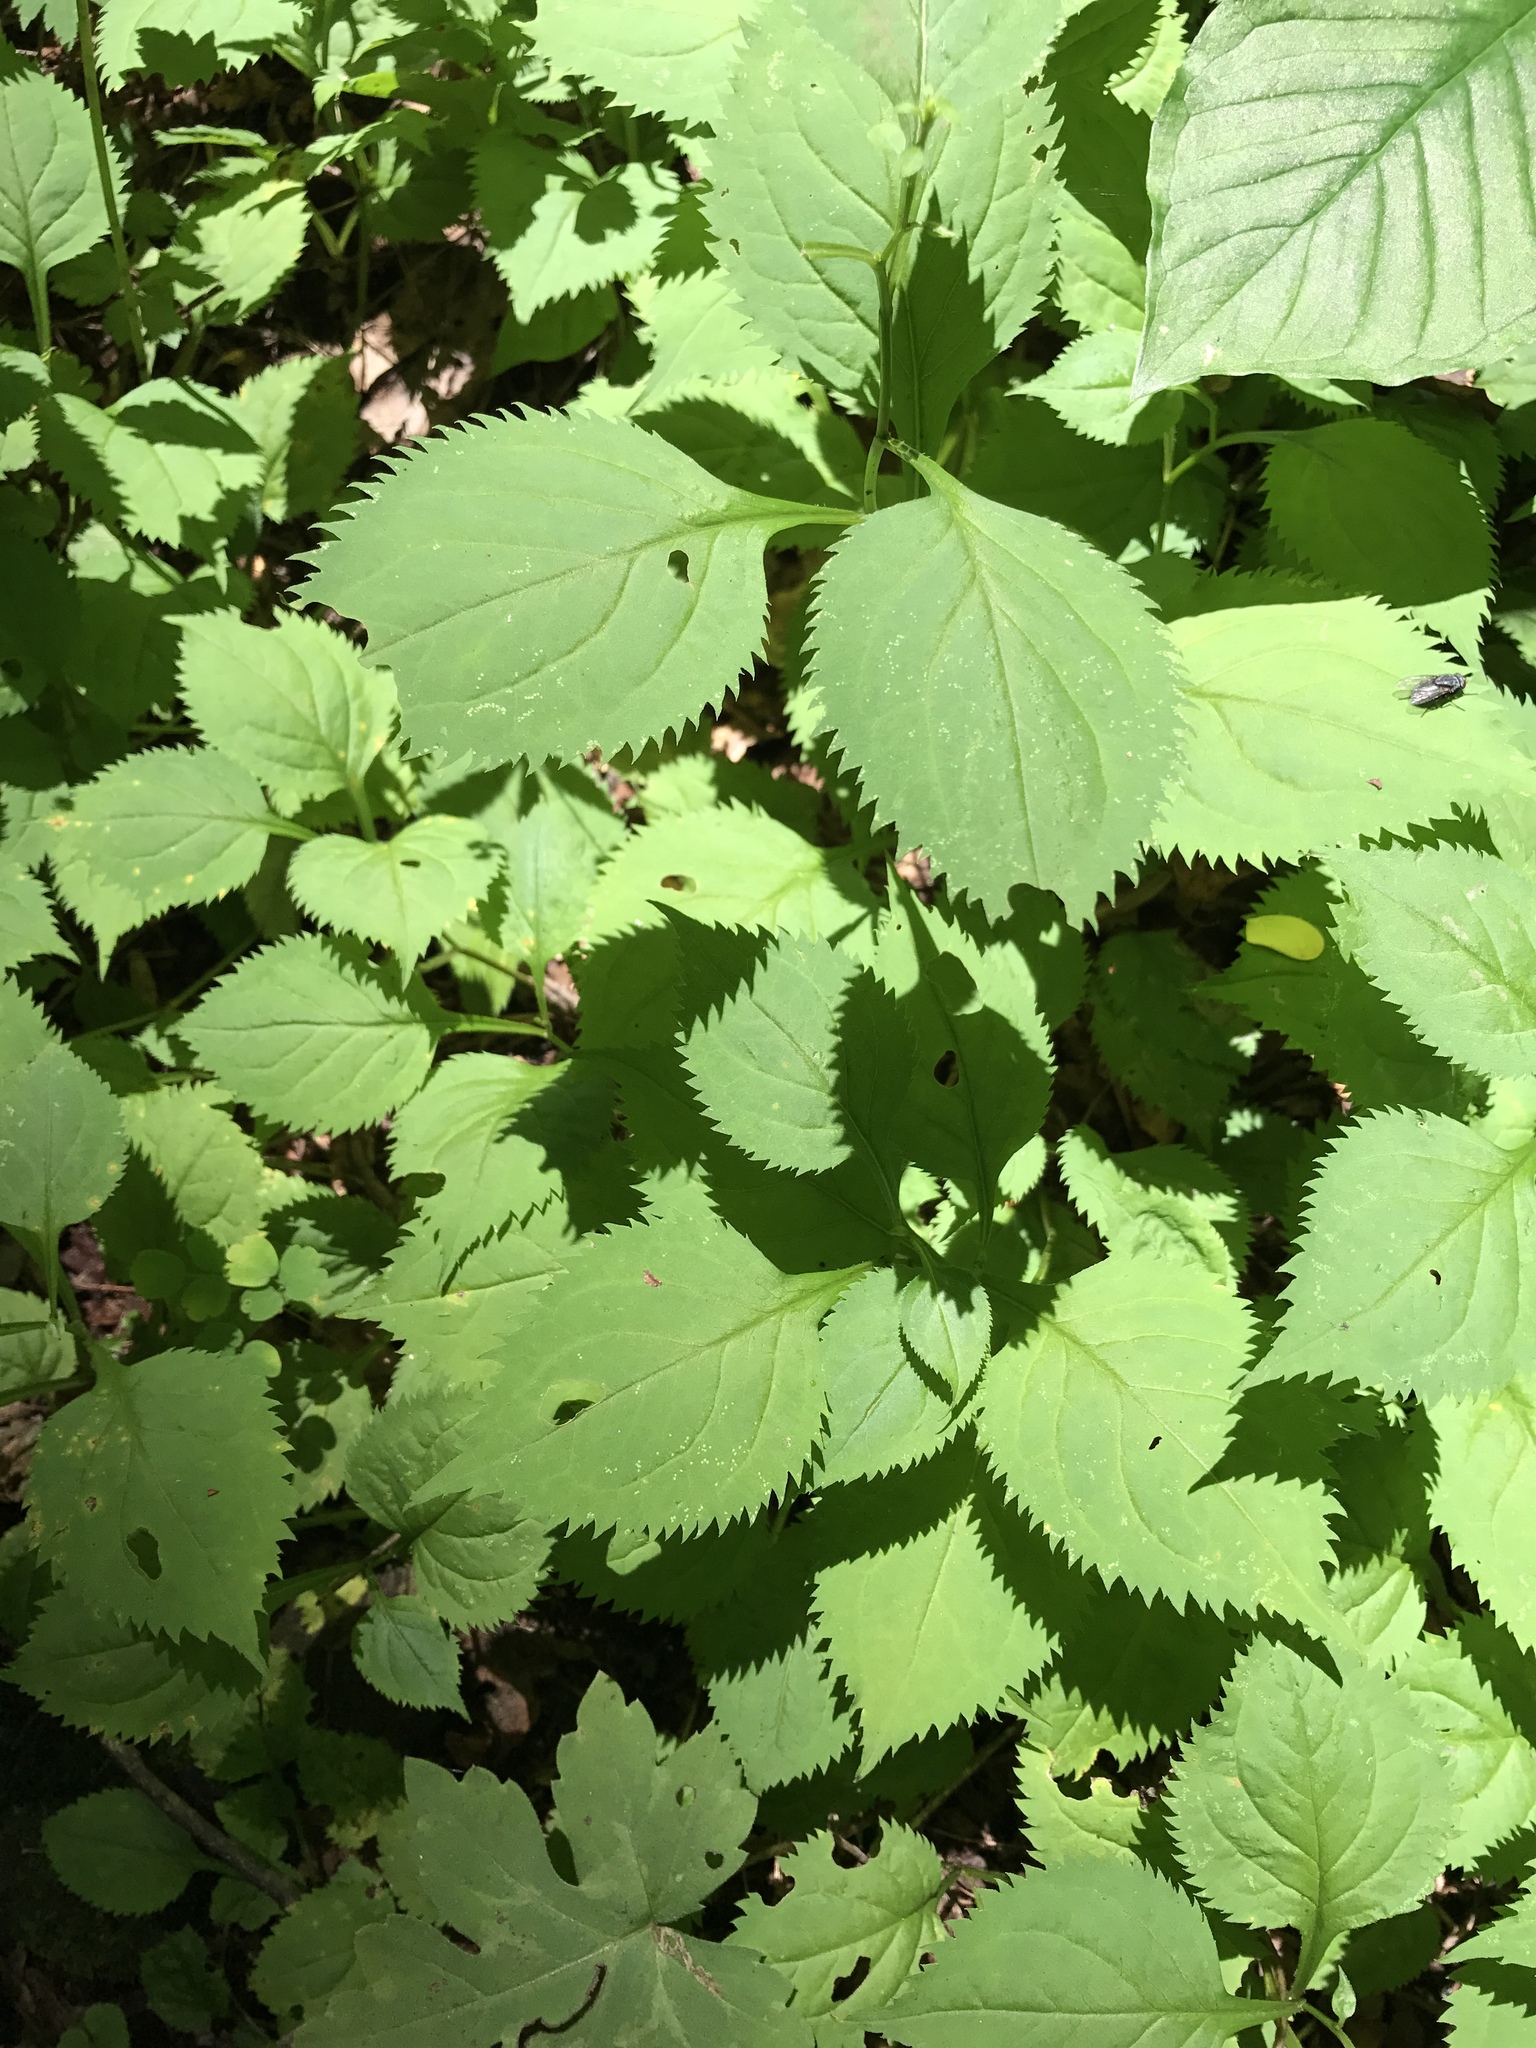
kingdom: Plantae
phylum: Tracheophyta
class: Magnoliopsida
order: Rosales
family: Urticaceae
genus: Laportea
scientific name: Laportea canadensis
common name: Canada nettle
